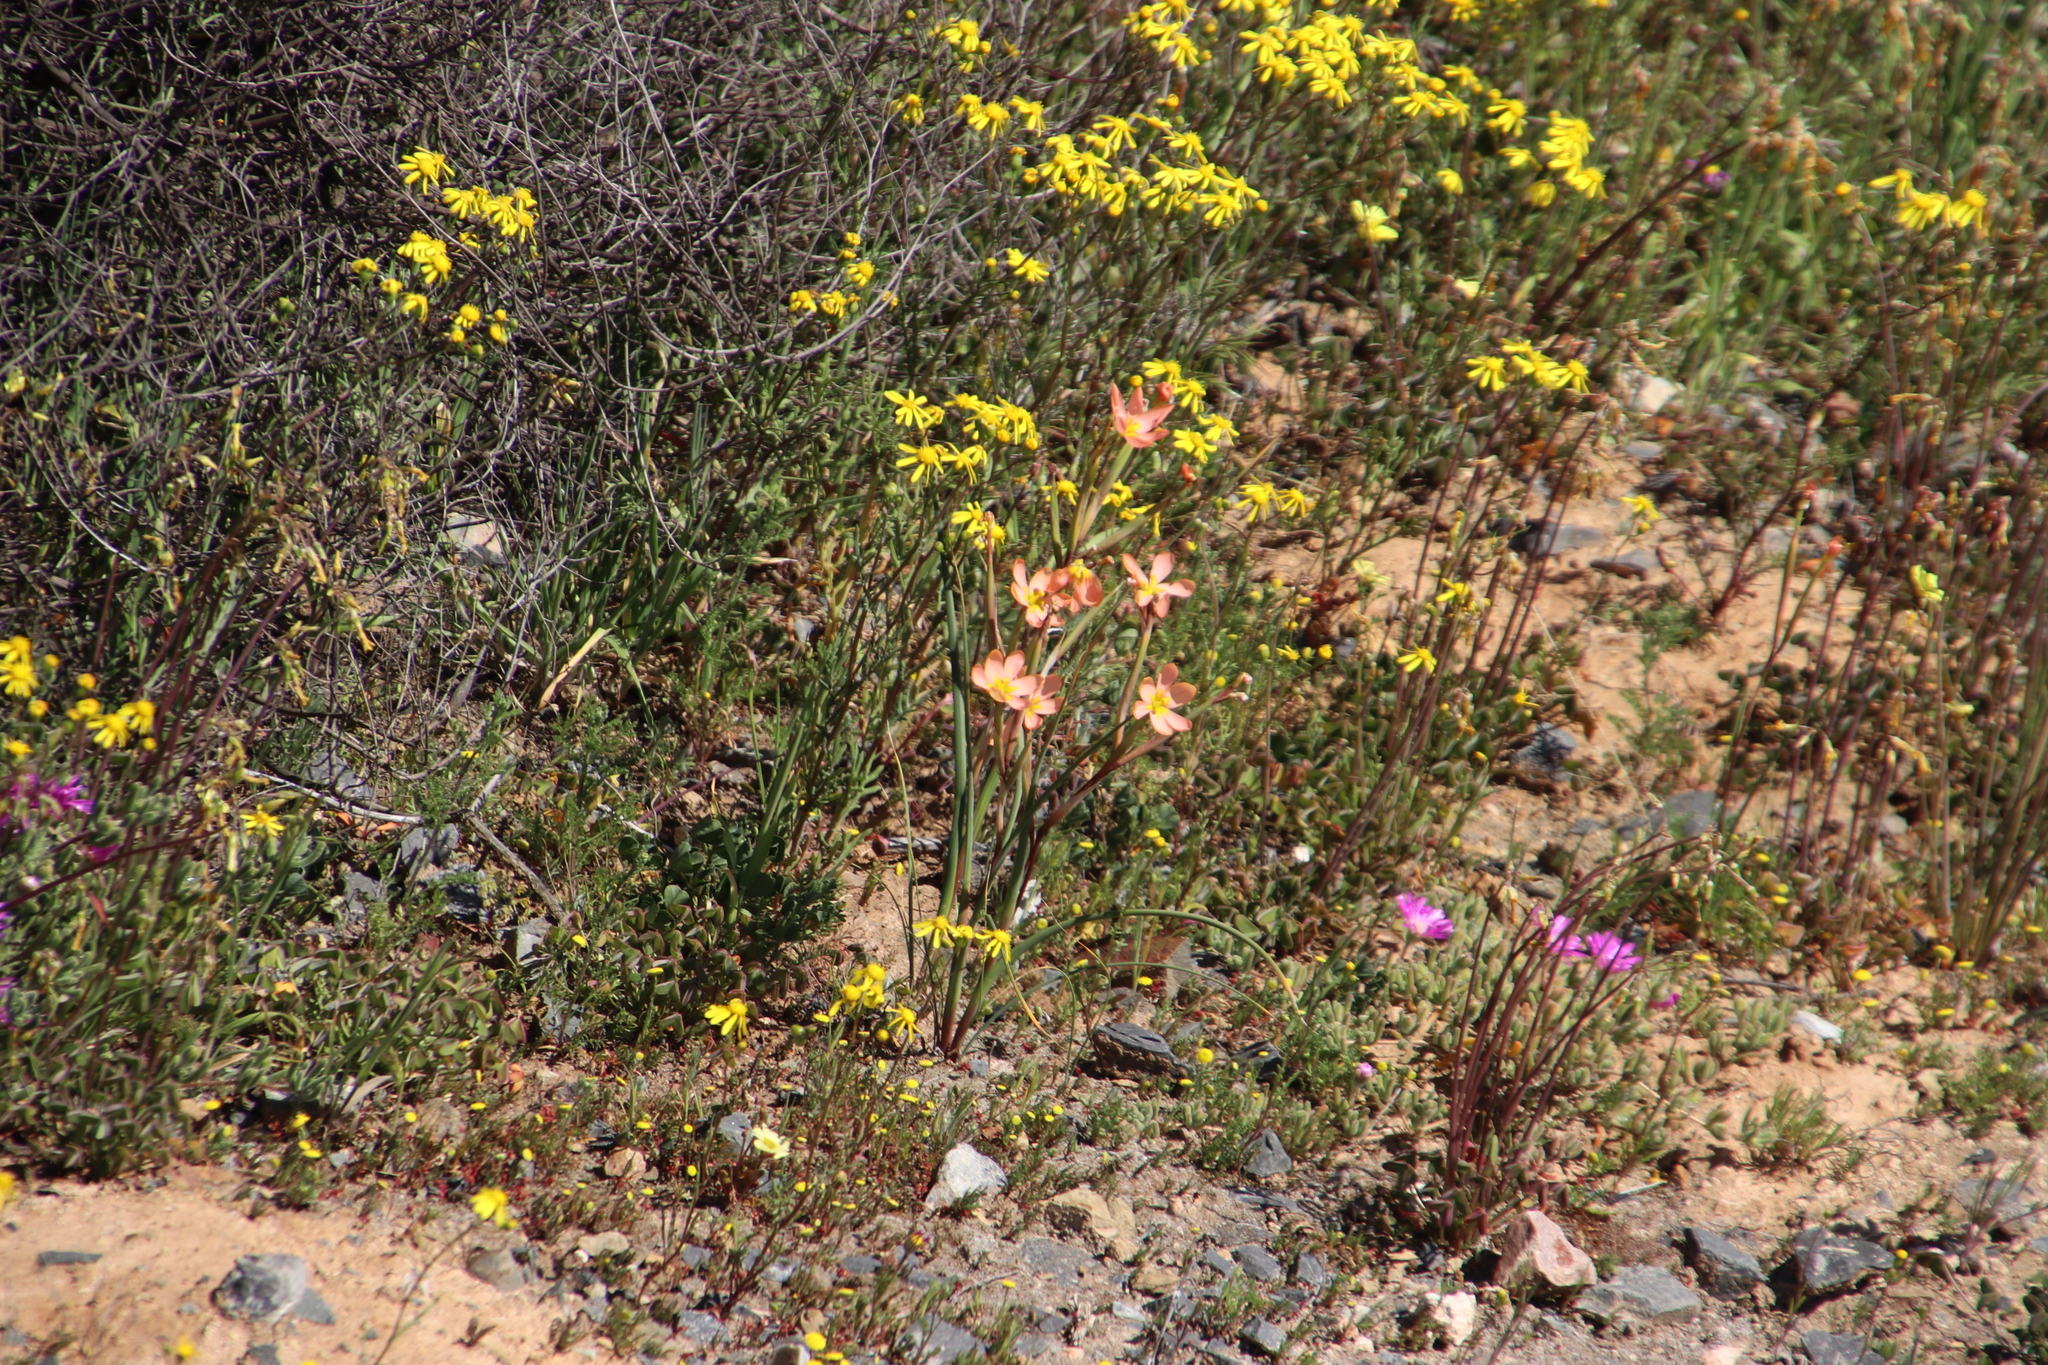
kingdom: Plantae
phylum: Tracheophyta
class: Liliopsida
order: Asparagales
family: Iridaceae
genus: Moraea
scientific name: Moraea miniata
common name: Two-leaf cape-tulip
